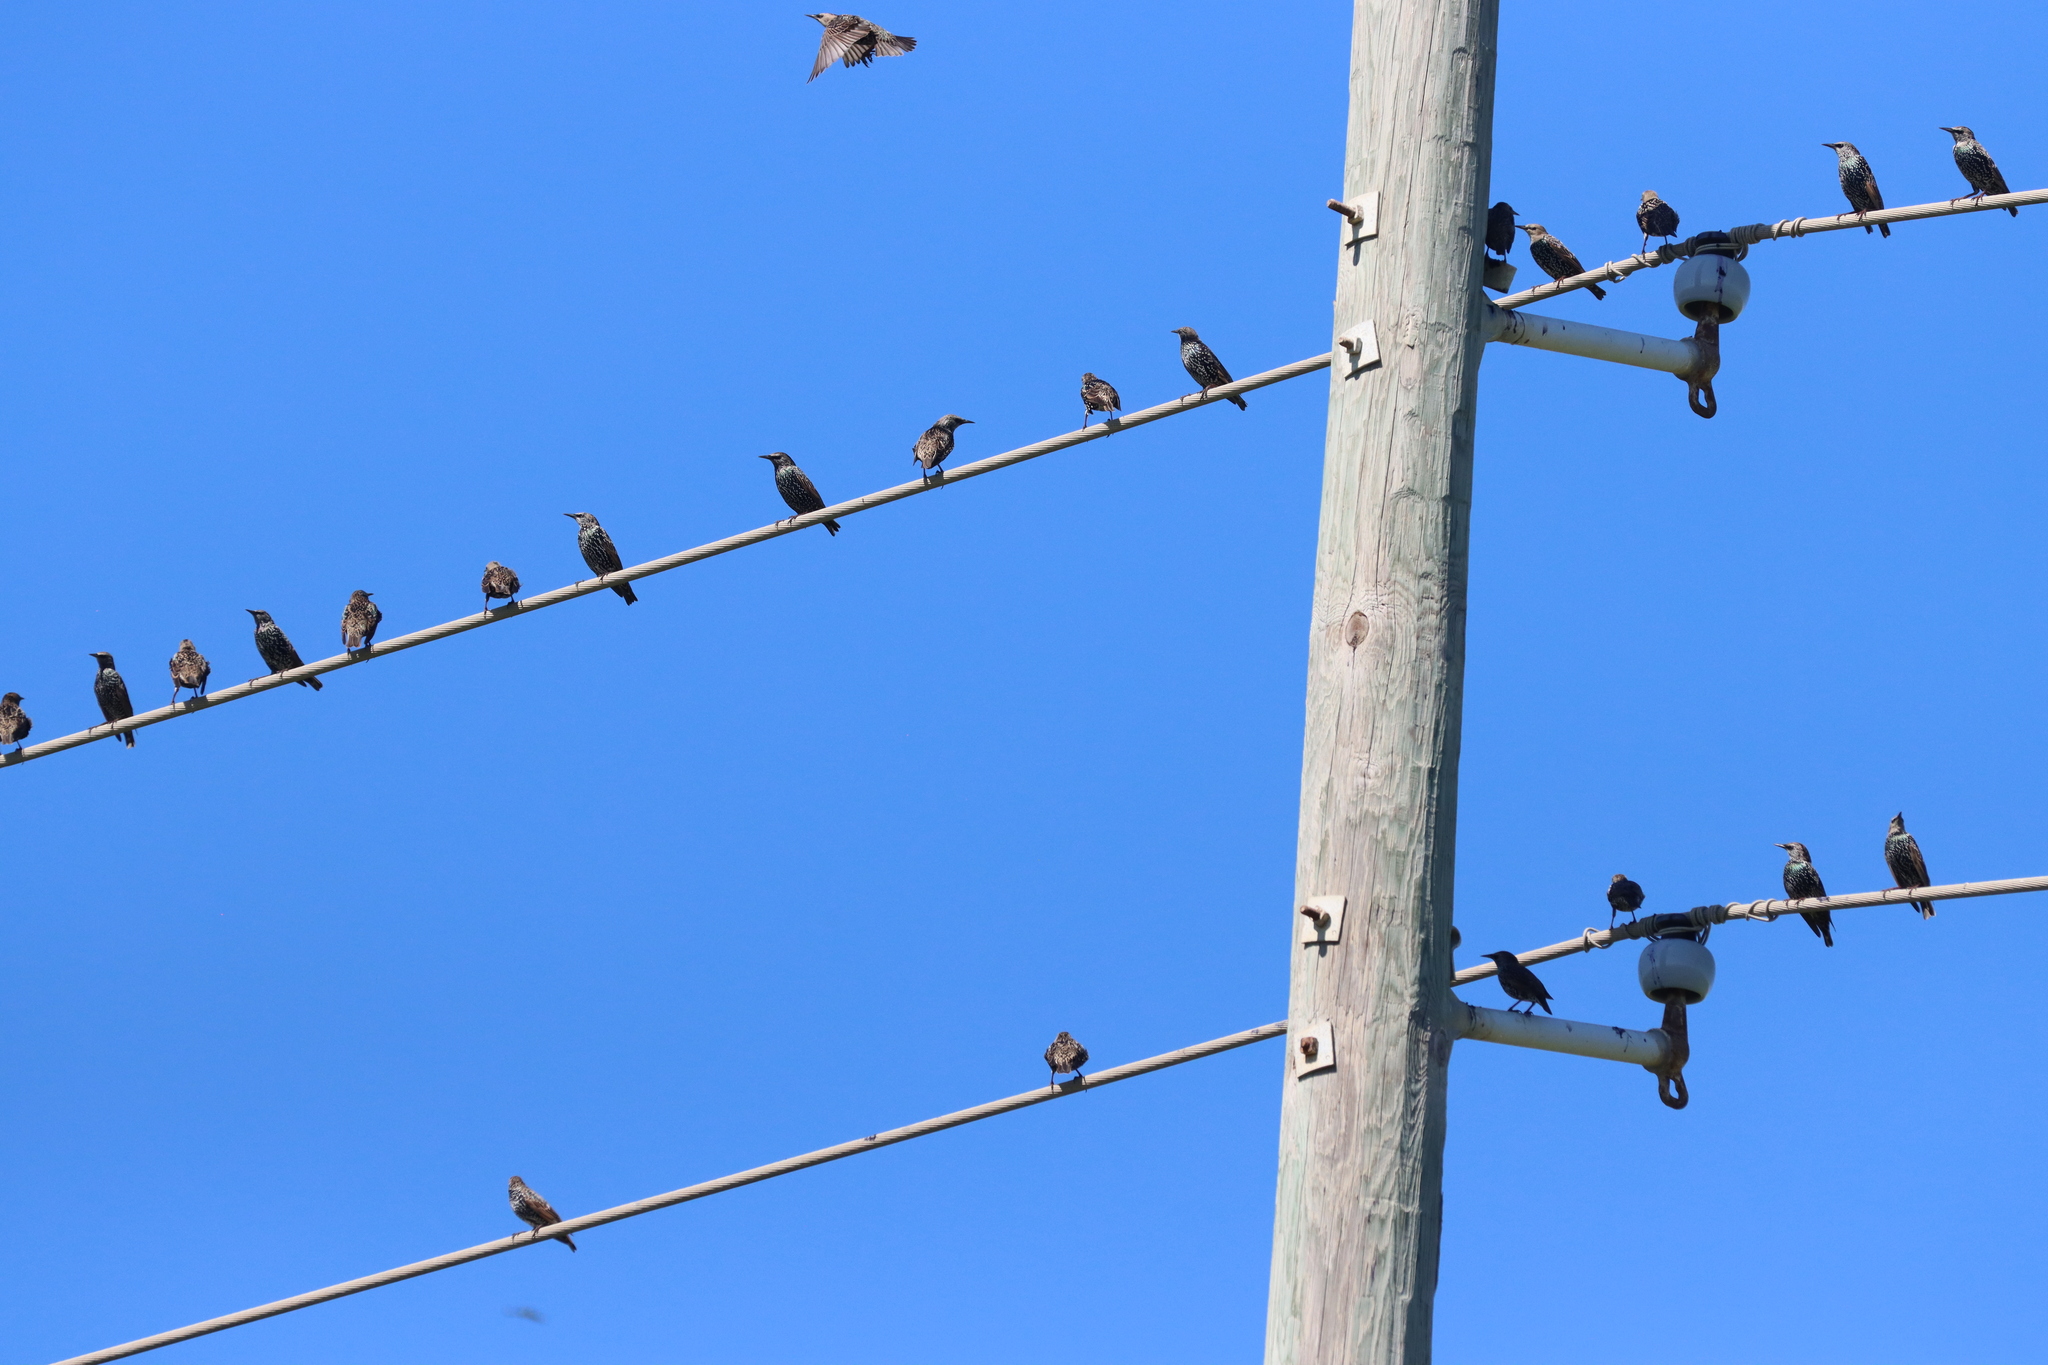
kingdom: Animalia
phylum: Chordata
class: Aves
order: Passeriformes
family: Sturnidae
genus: Sturnus
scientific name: Sturnus vulgaris
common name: Common starling
